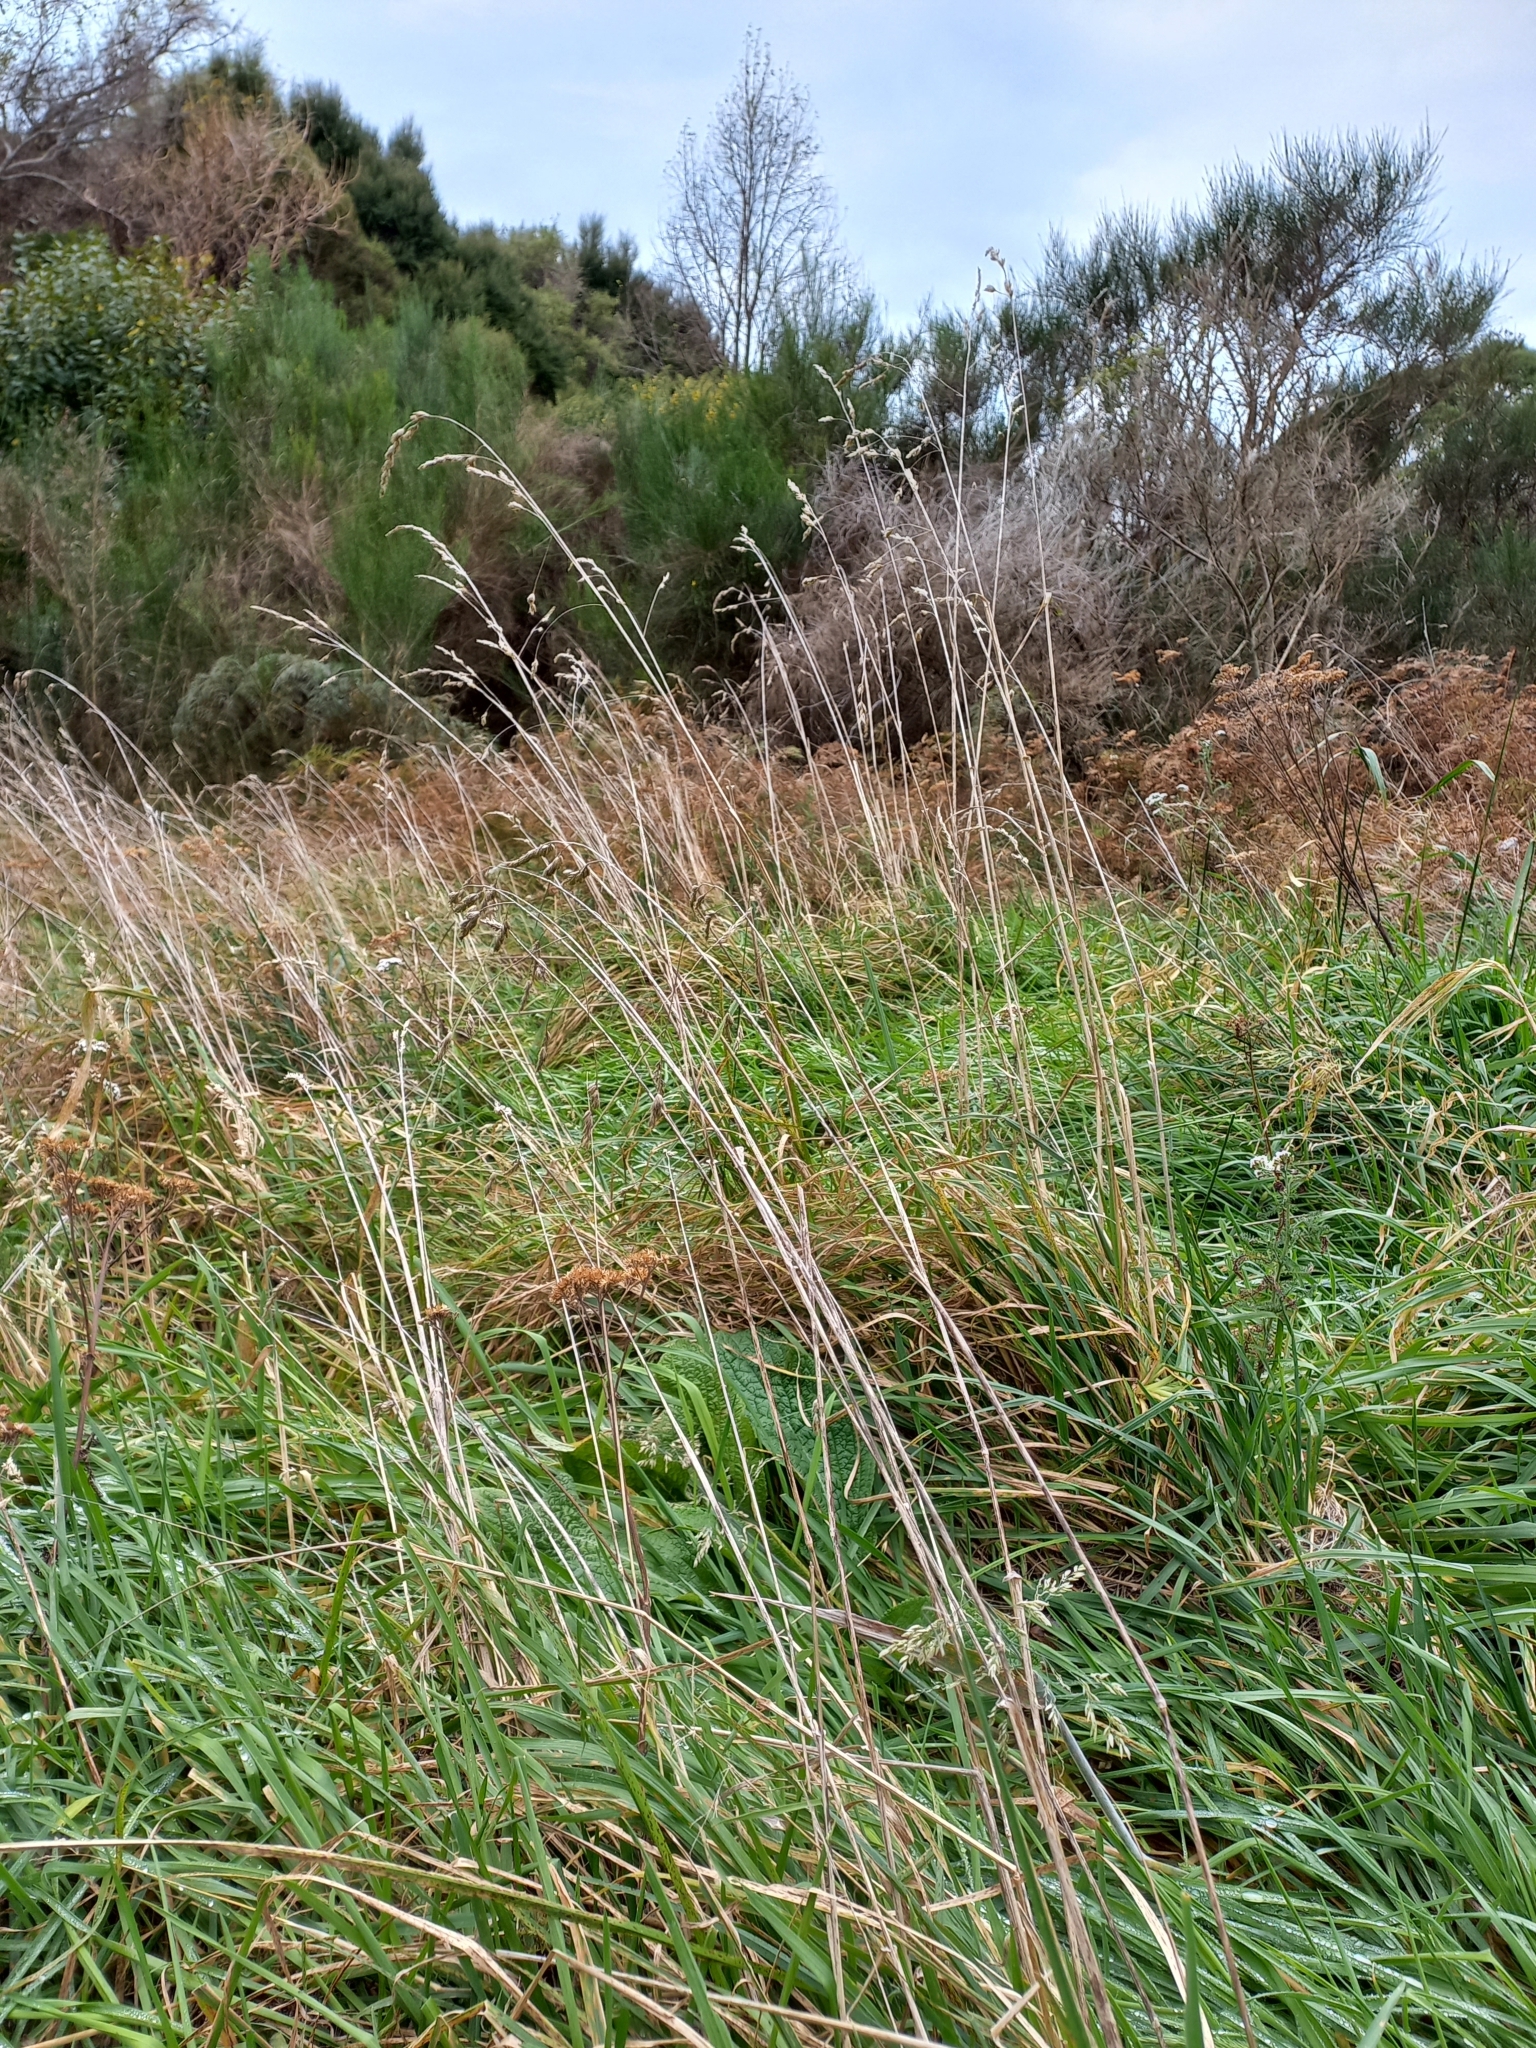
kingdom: Plantae
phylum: Tracheophyta
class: Liliopsida
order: Poales
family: Poaceae
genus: Dactylis
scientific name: Dactylis glomerata
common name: Orchardgrass
